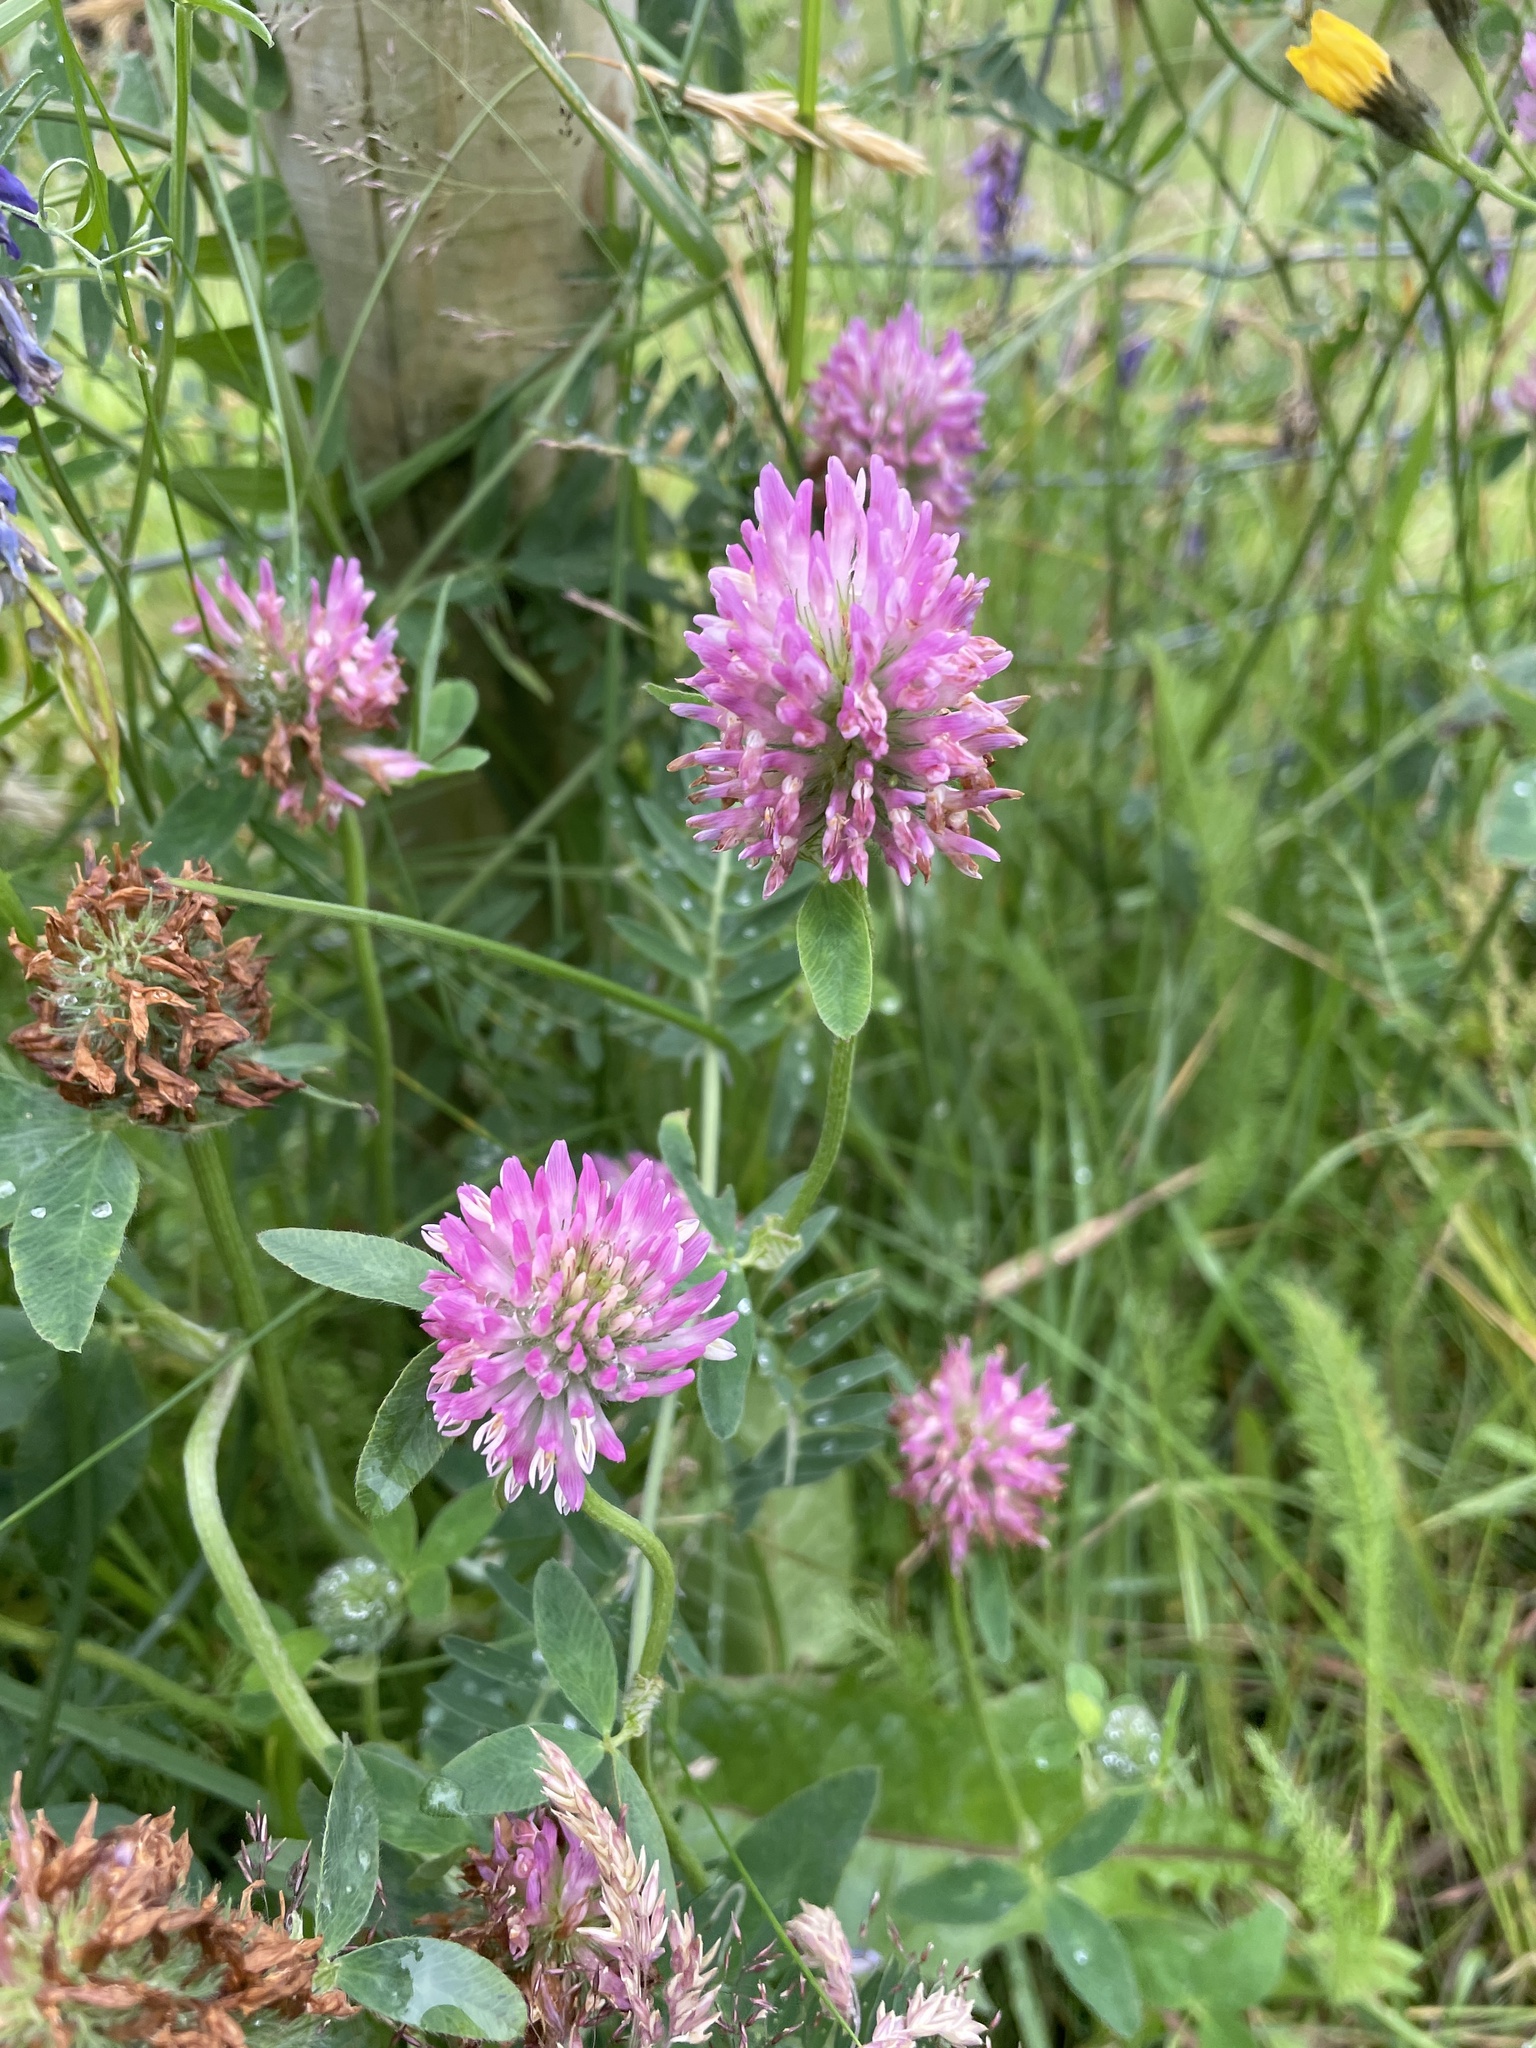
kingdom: Plantae
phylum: Tracheophyta
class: Magnoliopsida
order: Fabales
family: Fabaceae
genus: Trifolium
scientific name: Trifolium pratense
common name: Red clover
